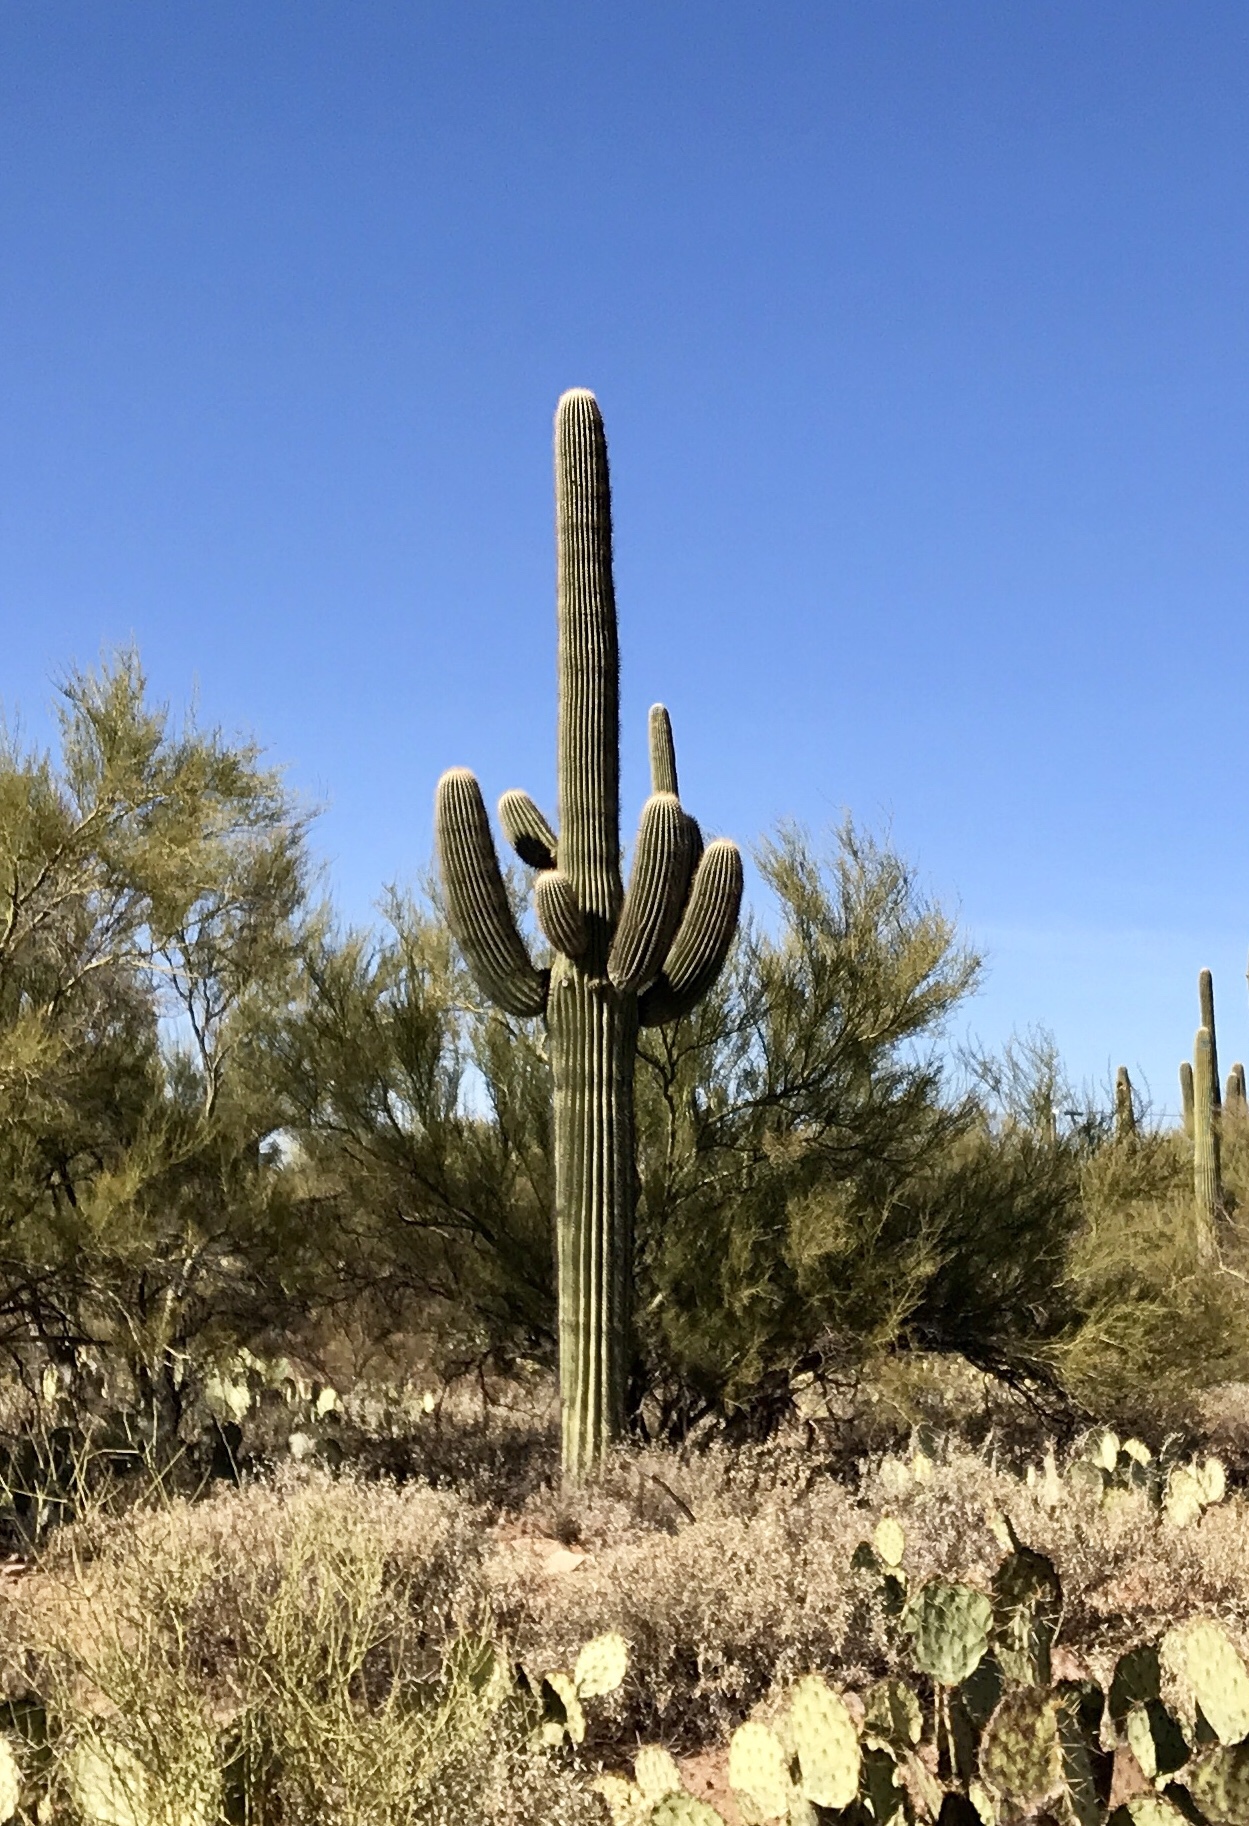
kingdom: Plantae
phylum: Tracheophyta
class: Magnoliopsida
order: Caryophyllales
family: Cactaceae
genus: Carnegiea
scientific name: Carnegiea gigantea
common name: Saguaro
